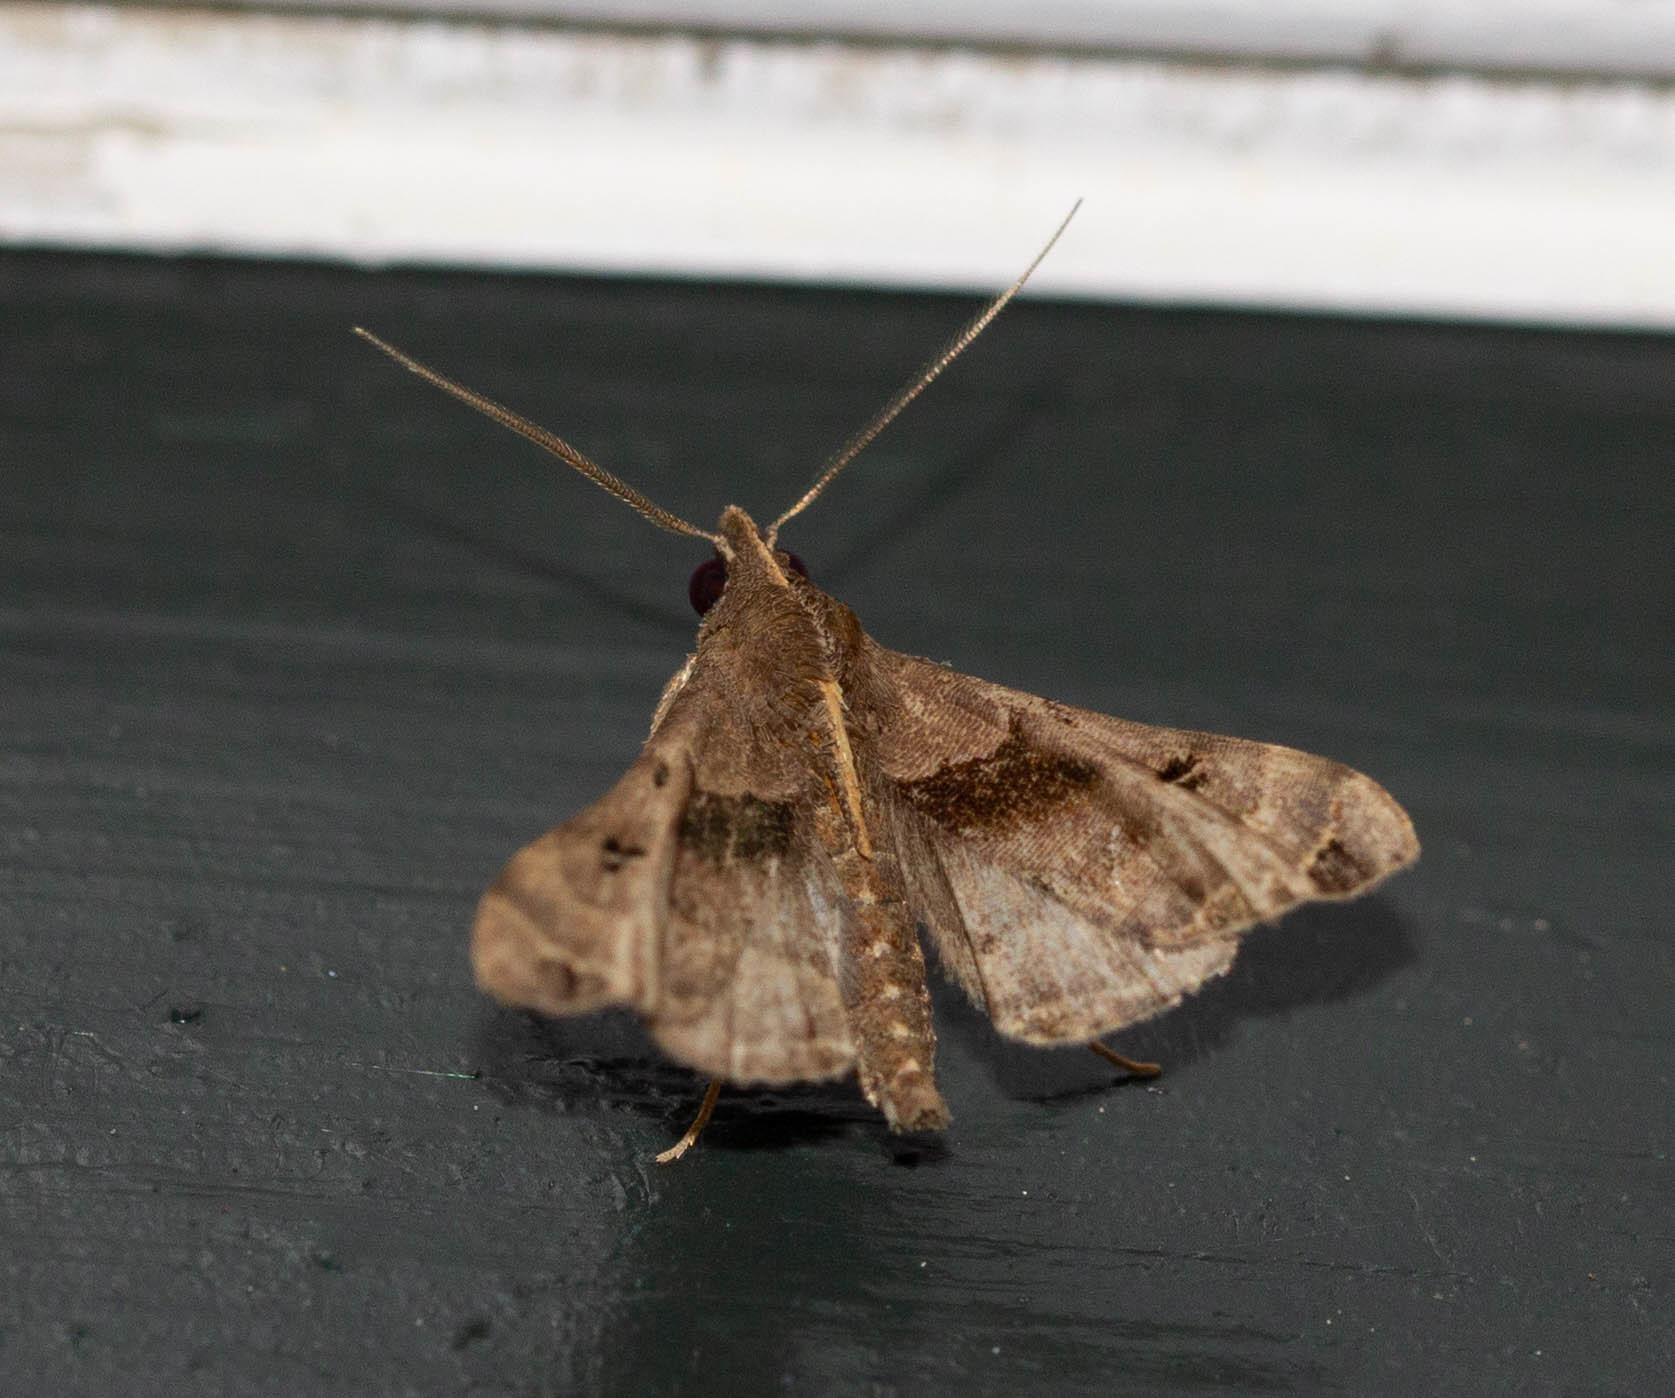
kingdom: Animalia
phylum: Arthropoda
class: Insecta
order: Lepidoptera
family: Erebidae
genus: Palthis
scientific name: Palthis asopialis
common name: Faint-spotted palthis moth
